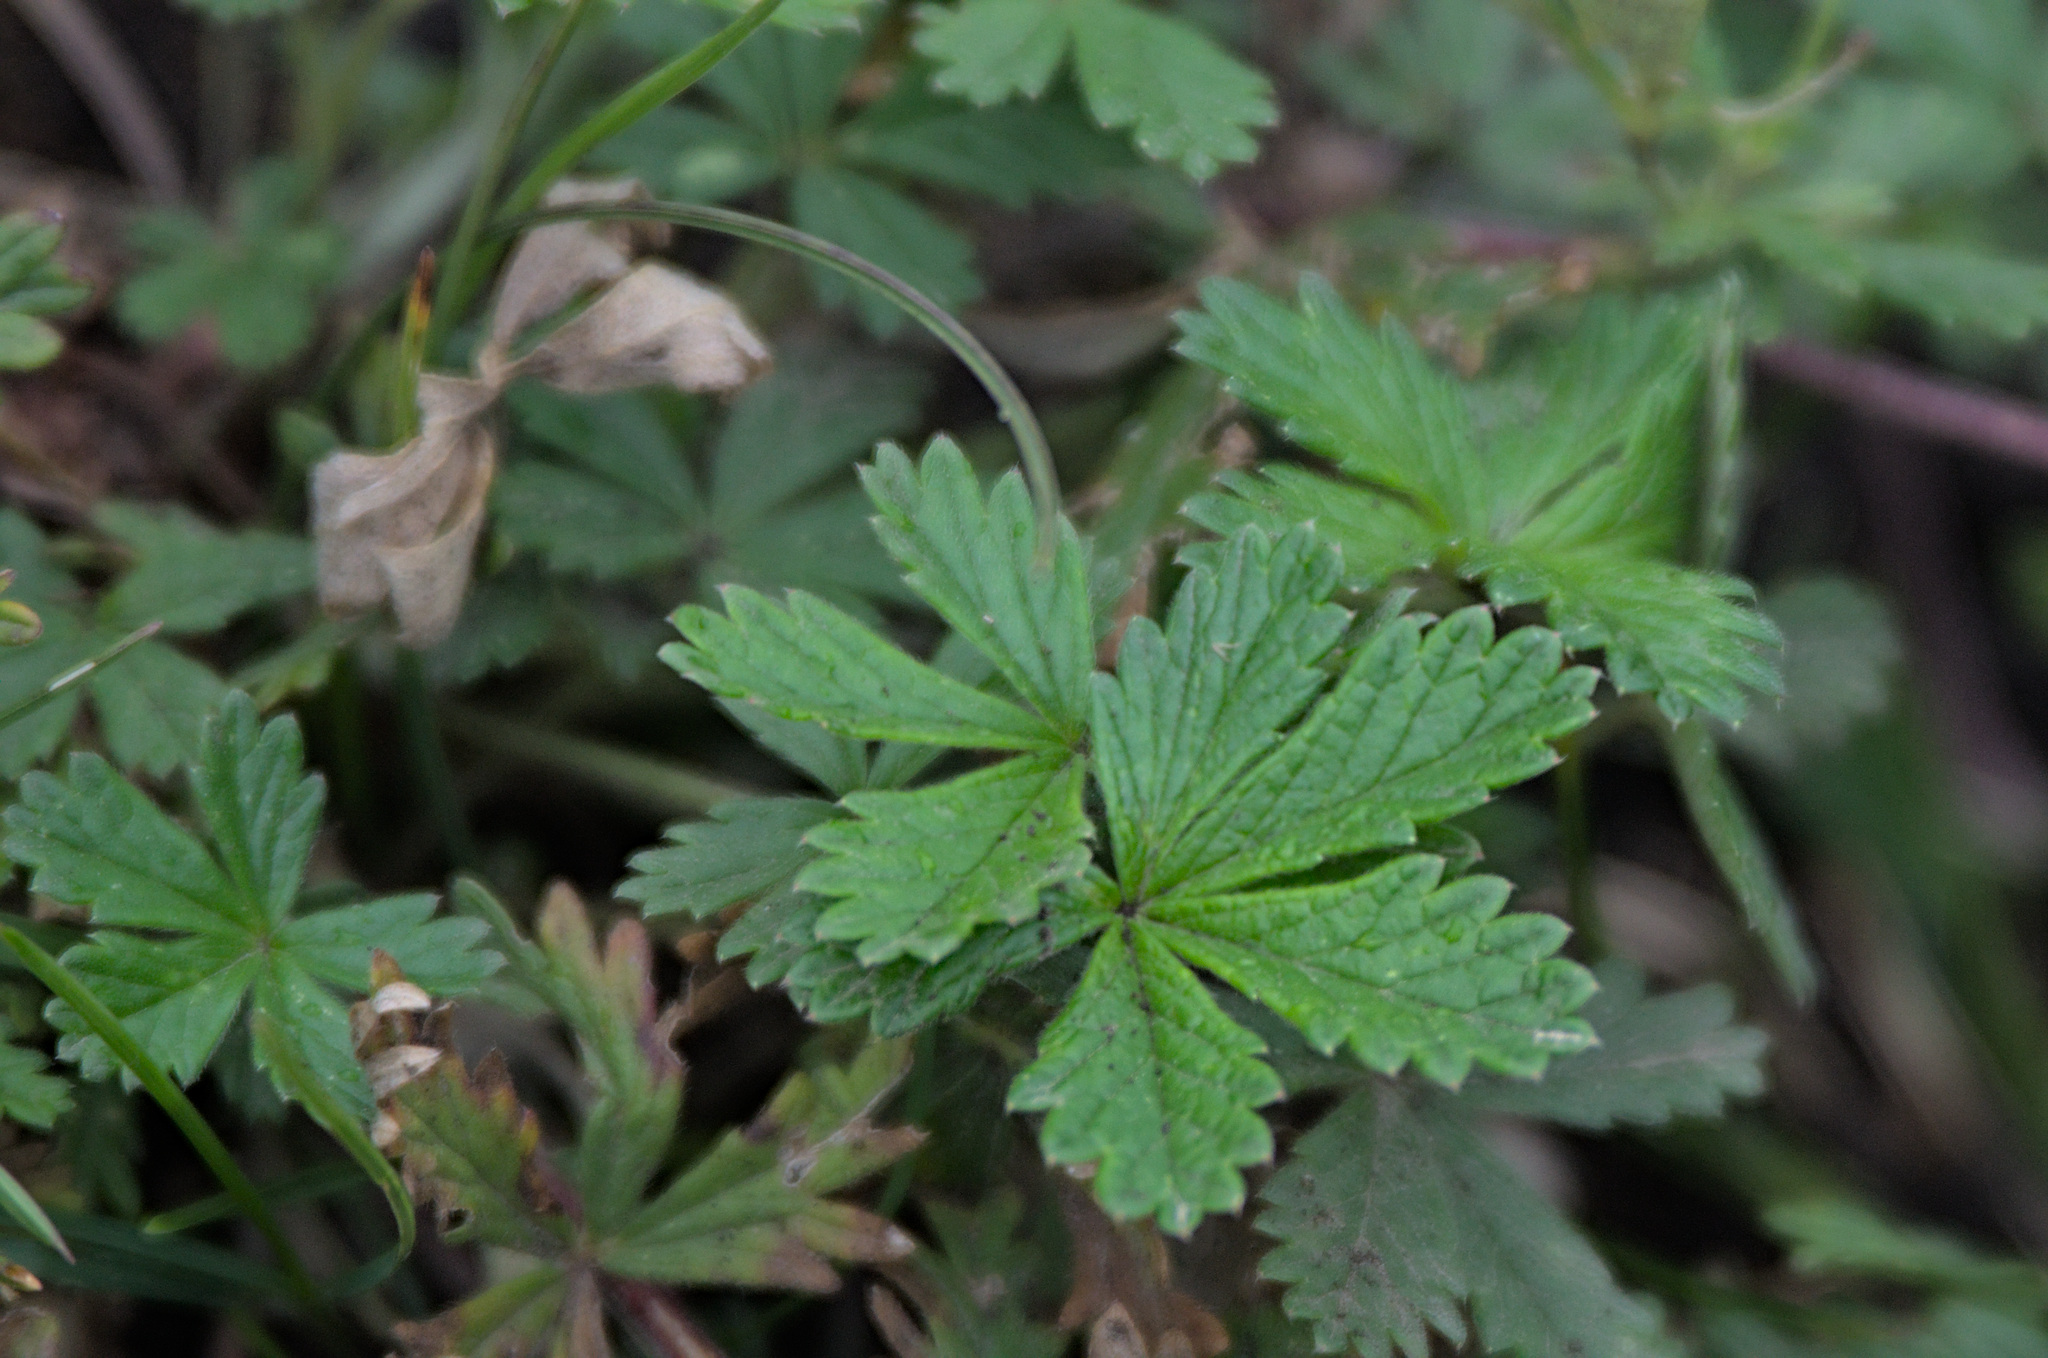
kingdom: Plantae
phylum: Tracheophyta
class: Magnoliopsida
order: Rosales
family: Rosaceae
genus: Potentilla
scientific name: Potentilla argentea
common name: Hoary cinquefoil
